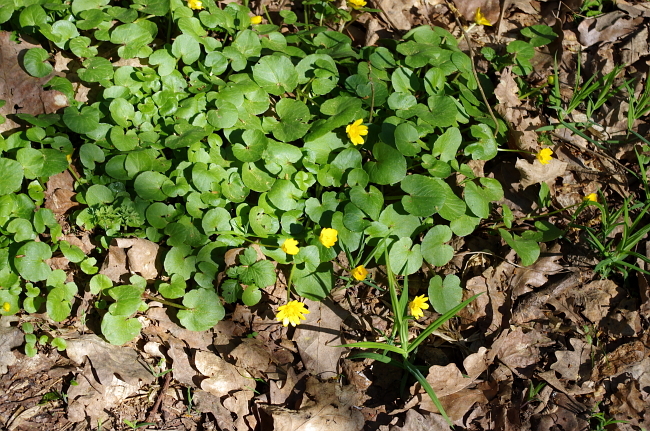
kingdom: Plantae
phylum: Tracheophyta
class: Magnoliopsida
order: Ranunculales
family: Ranunculaceae
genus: Ficaria
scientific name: Ficaria verna
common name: Lesser celandine
